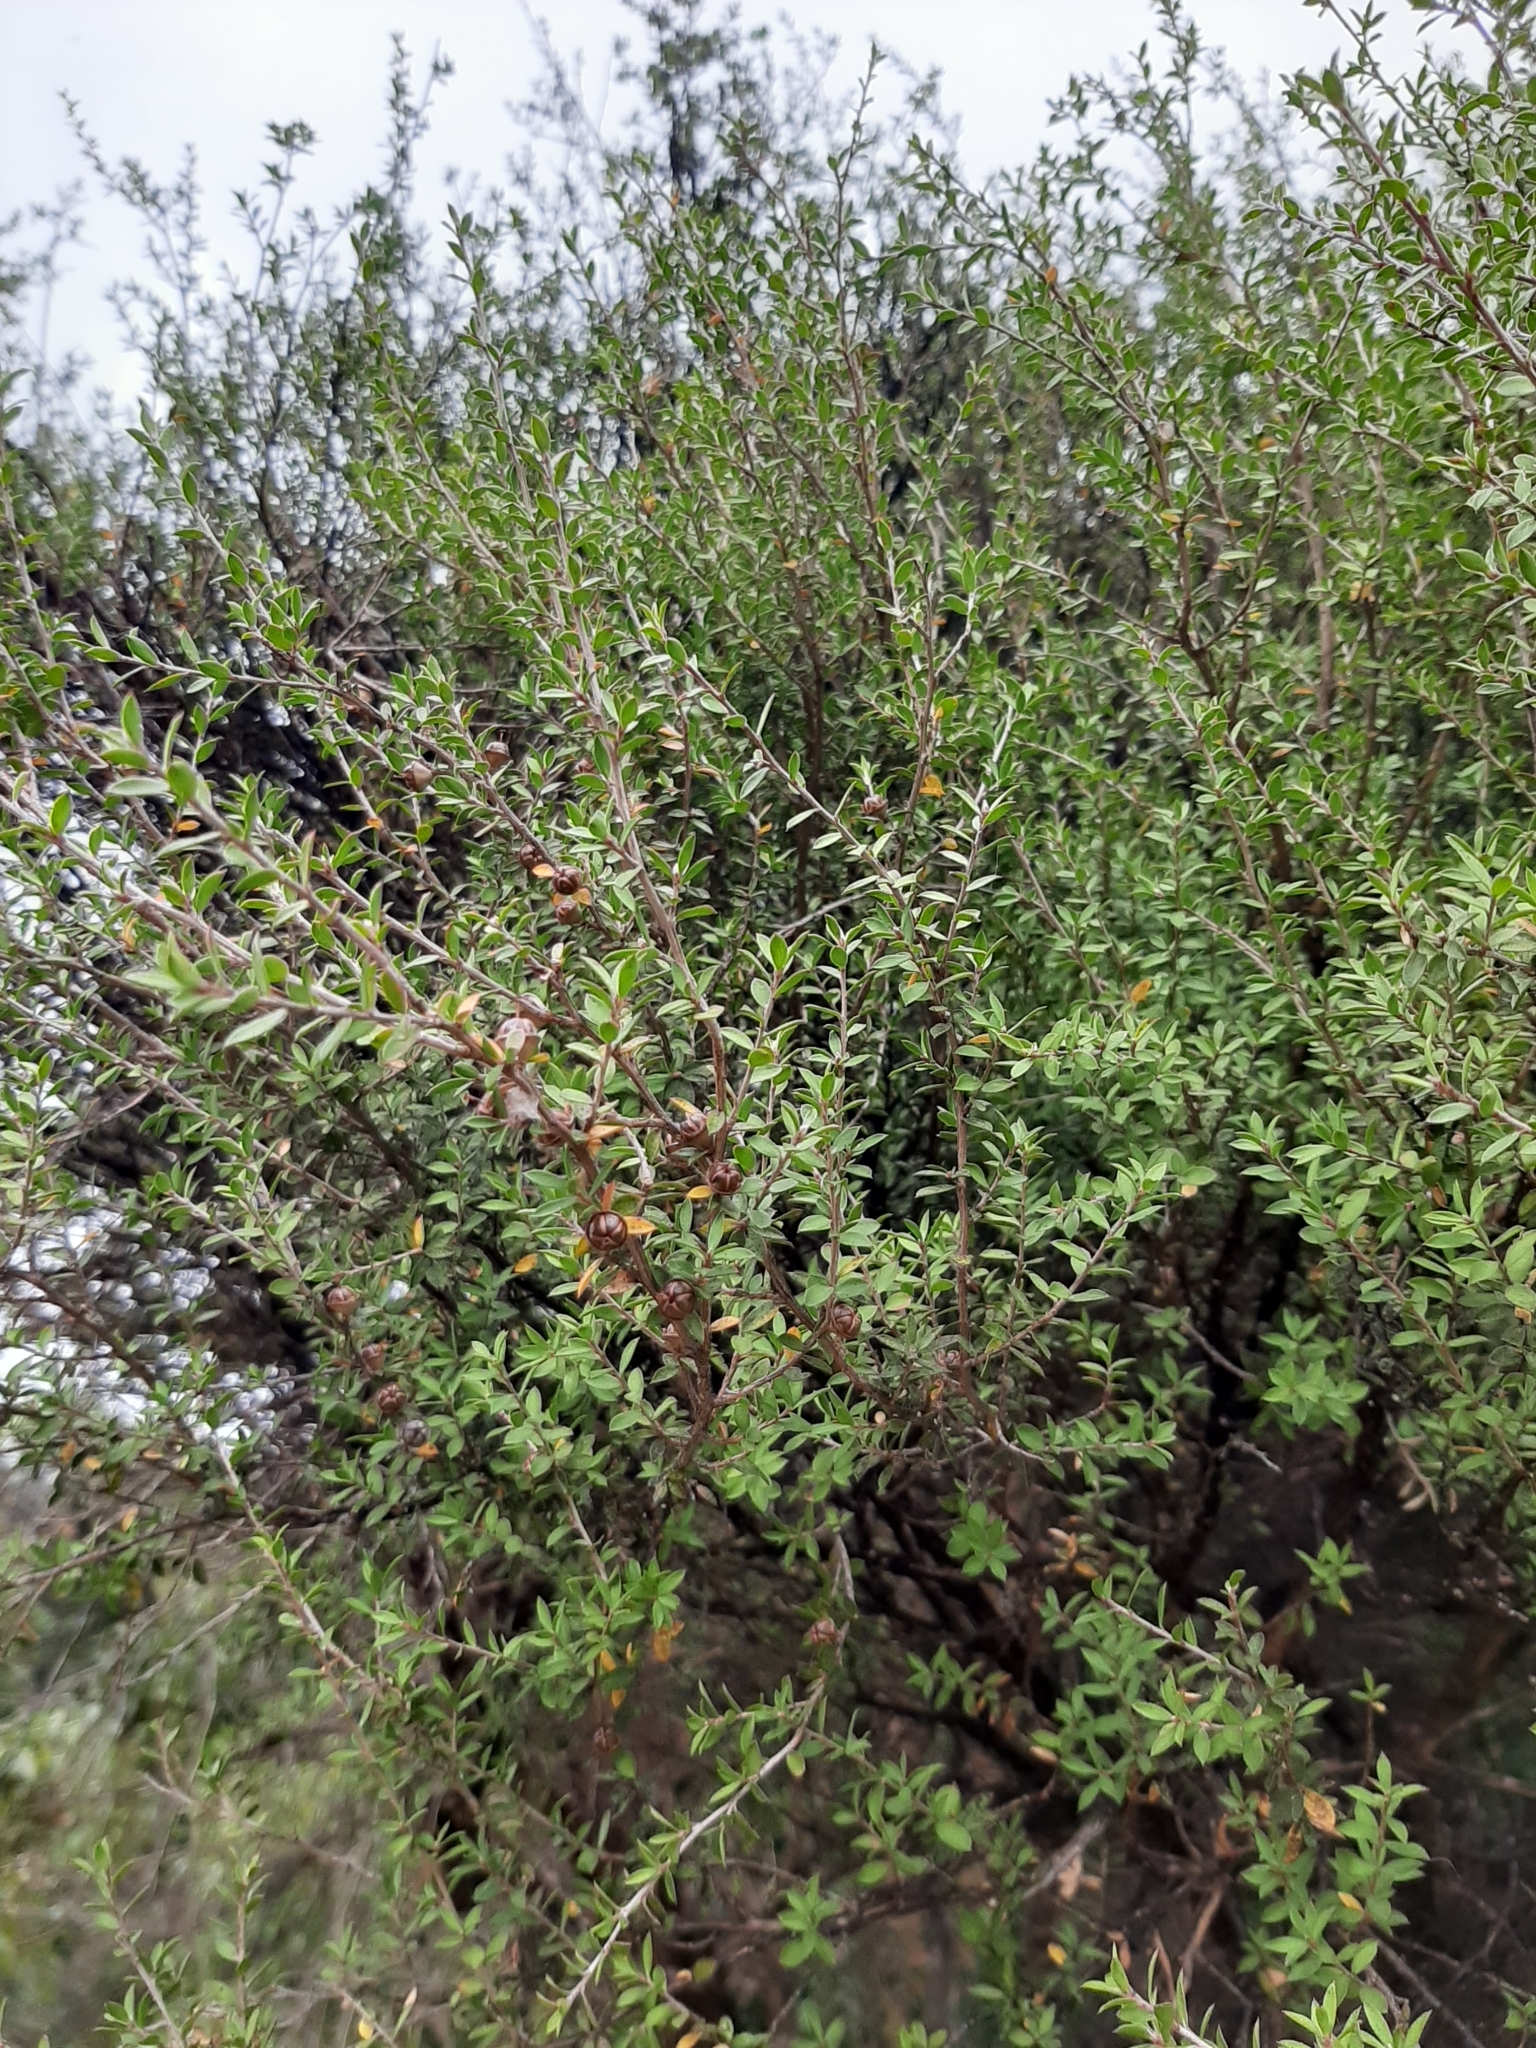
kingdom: Plantae
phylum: Tracheophyta
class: Magnoliopsida
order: Myrtales
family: Myrtaceae
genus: Leptospermum
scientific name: Leptospermum scoparium
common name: Broom tea-tree
